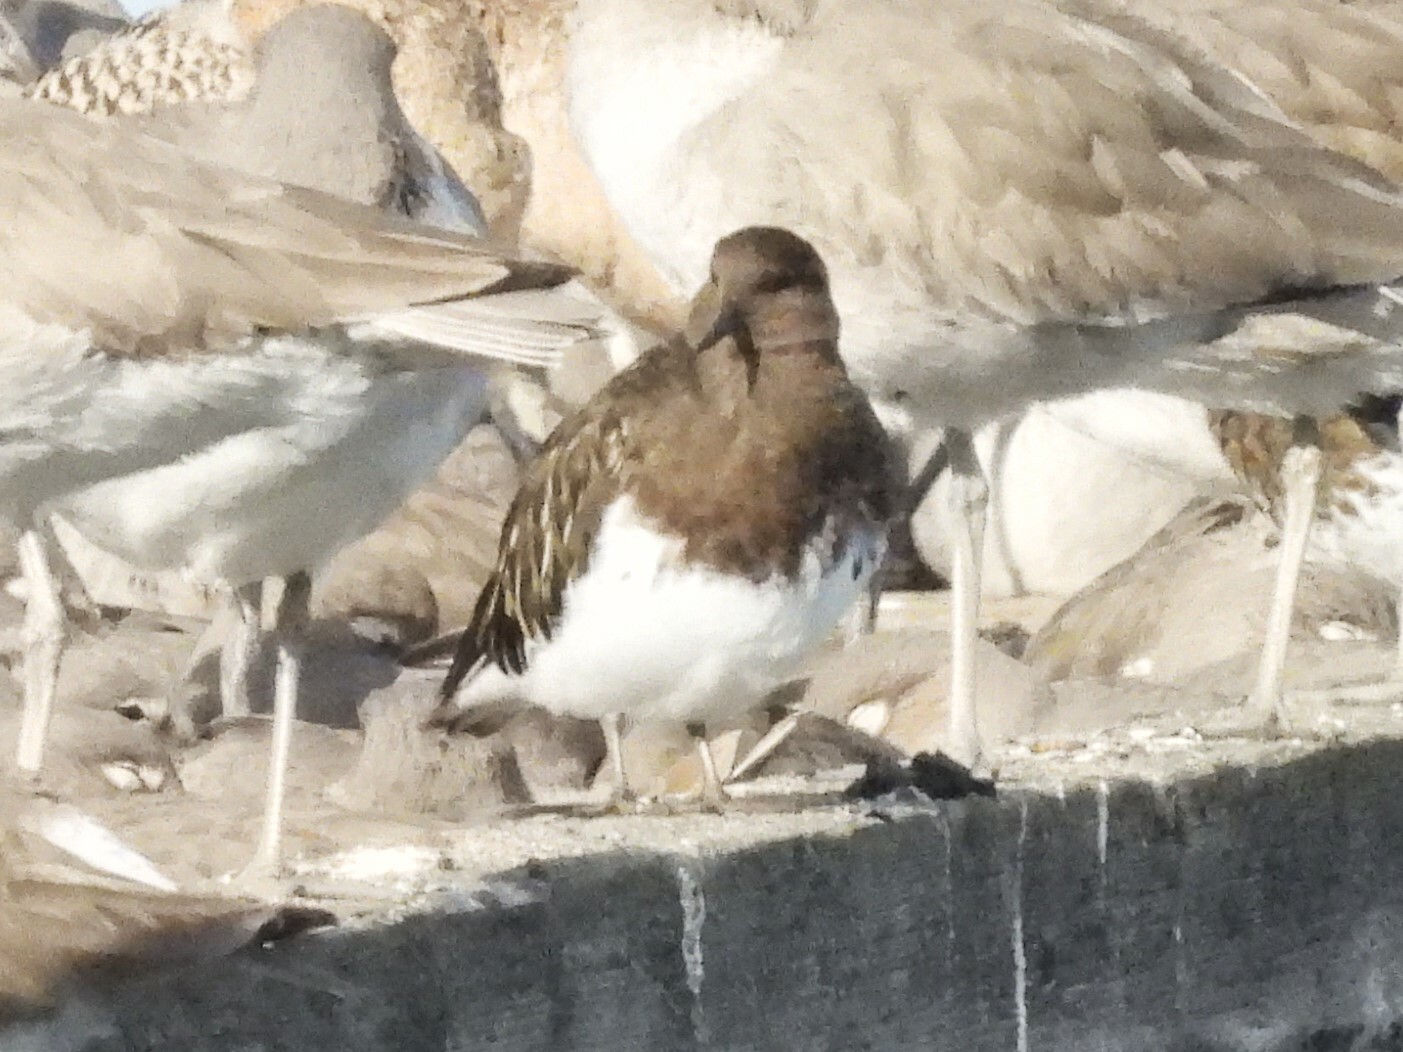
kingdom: Animalia
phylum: Chordata
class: Aves
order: Charadriiformes
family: Scolopacidae
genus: Arenaria
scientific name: Arenaria melanocephala
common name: Black turnstone
